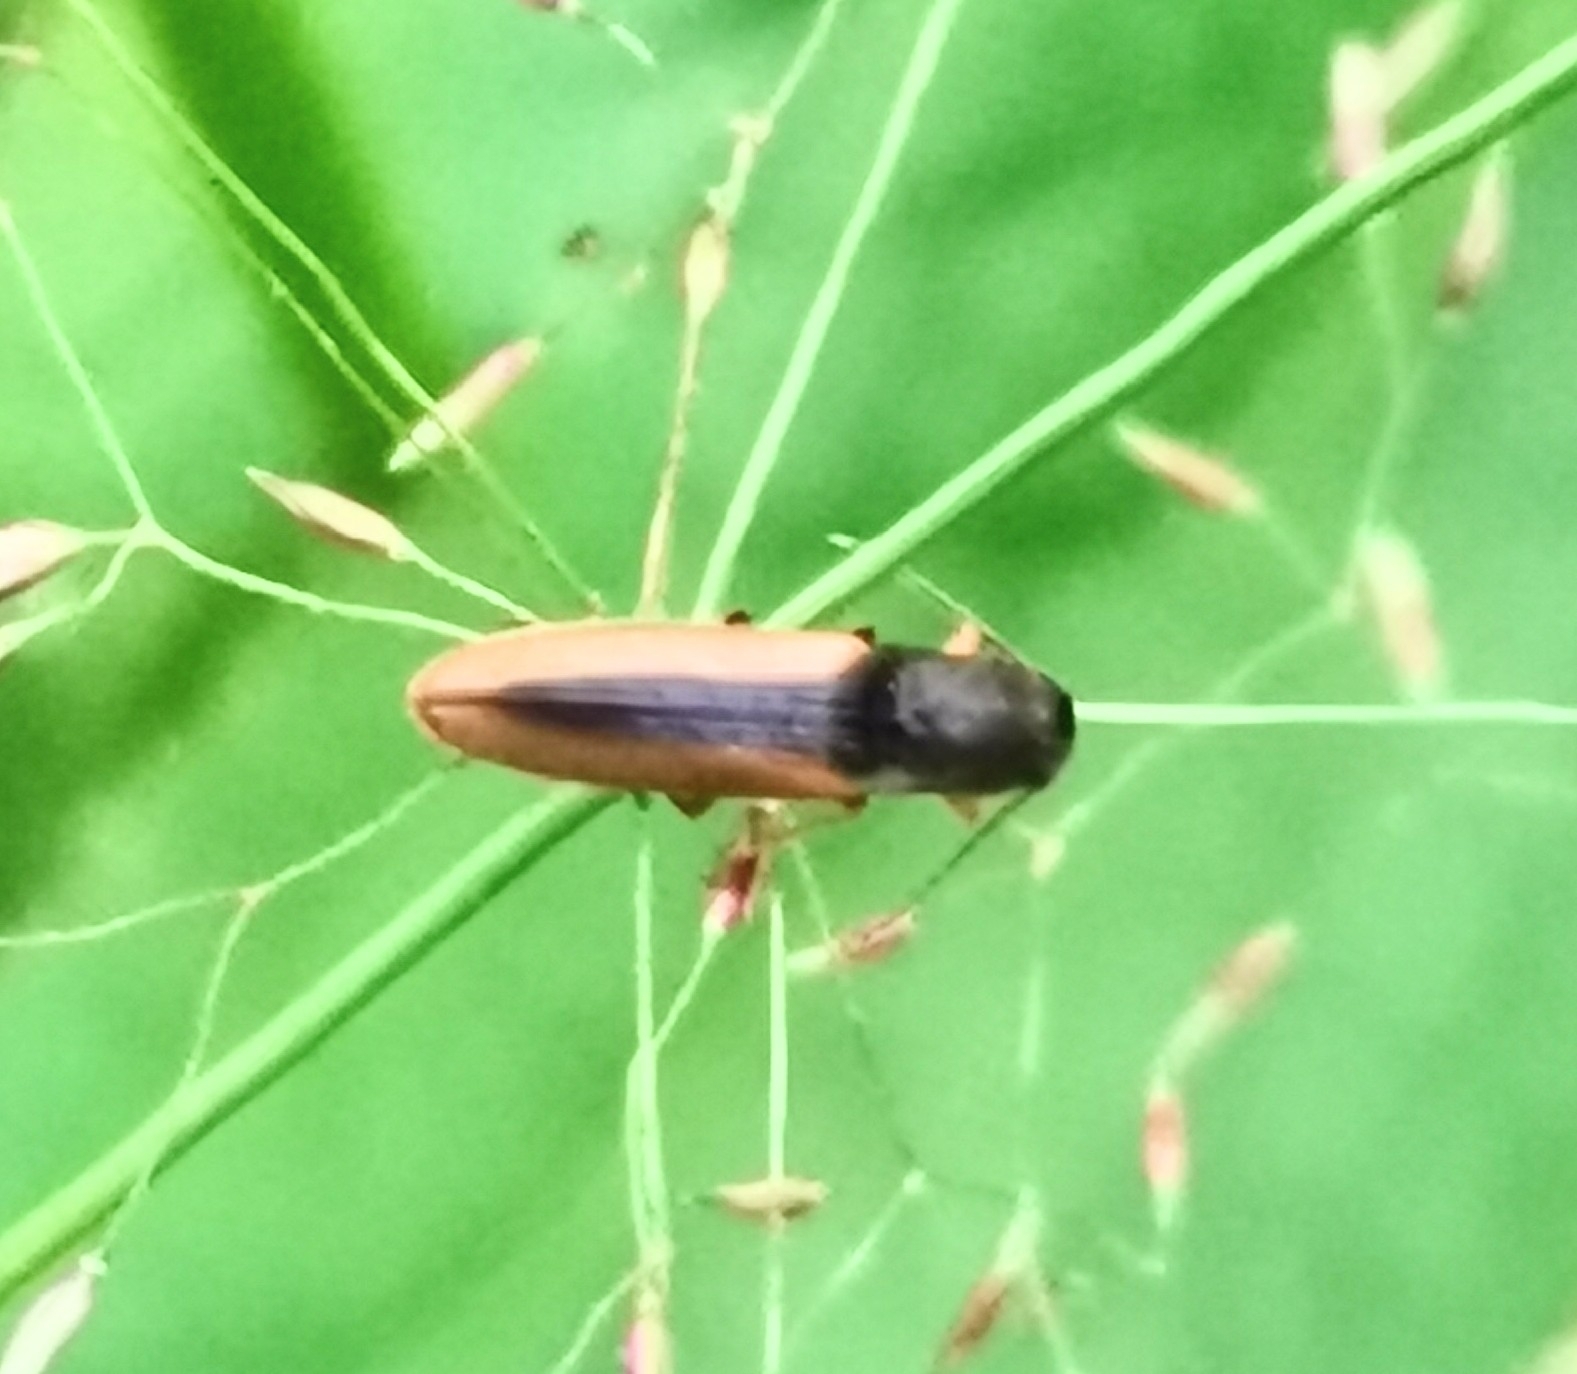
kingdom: Animalia
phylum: Arthropoda
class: Insecta
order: Coleoptera
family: Elateridae
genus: Dalopius
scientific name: Dalopius marginatus
